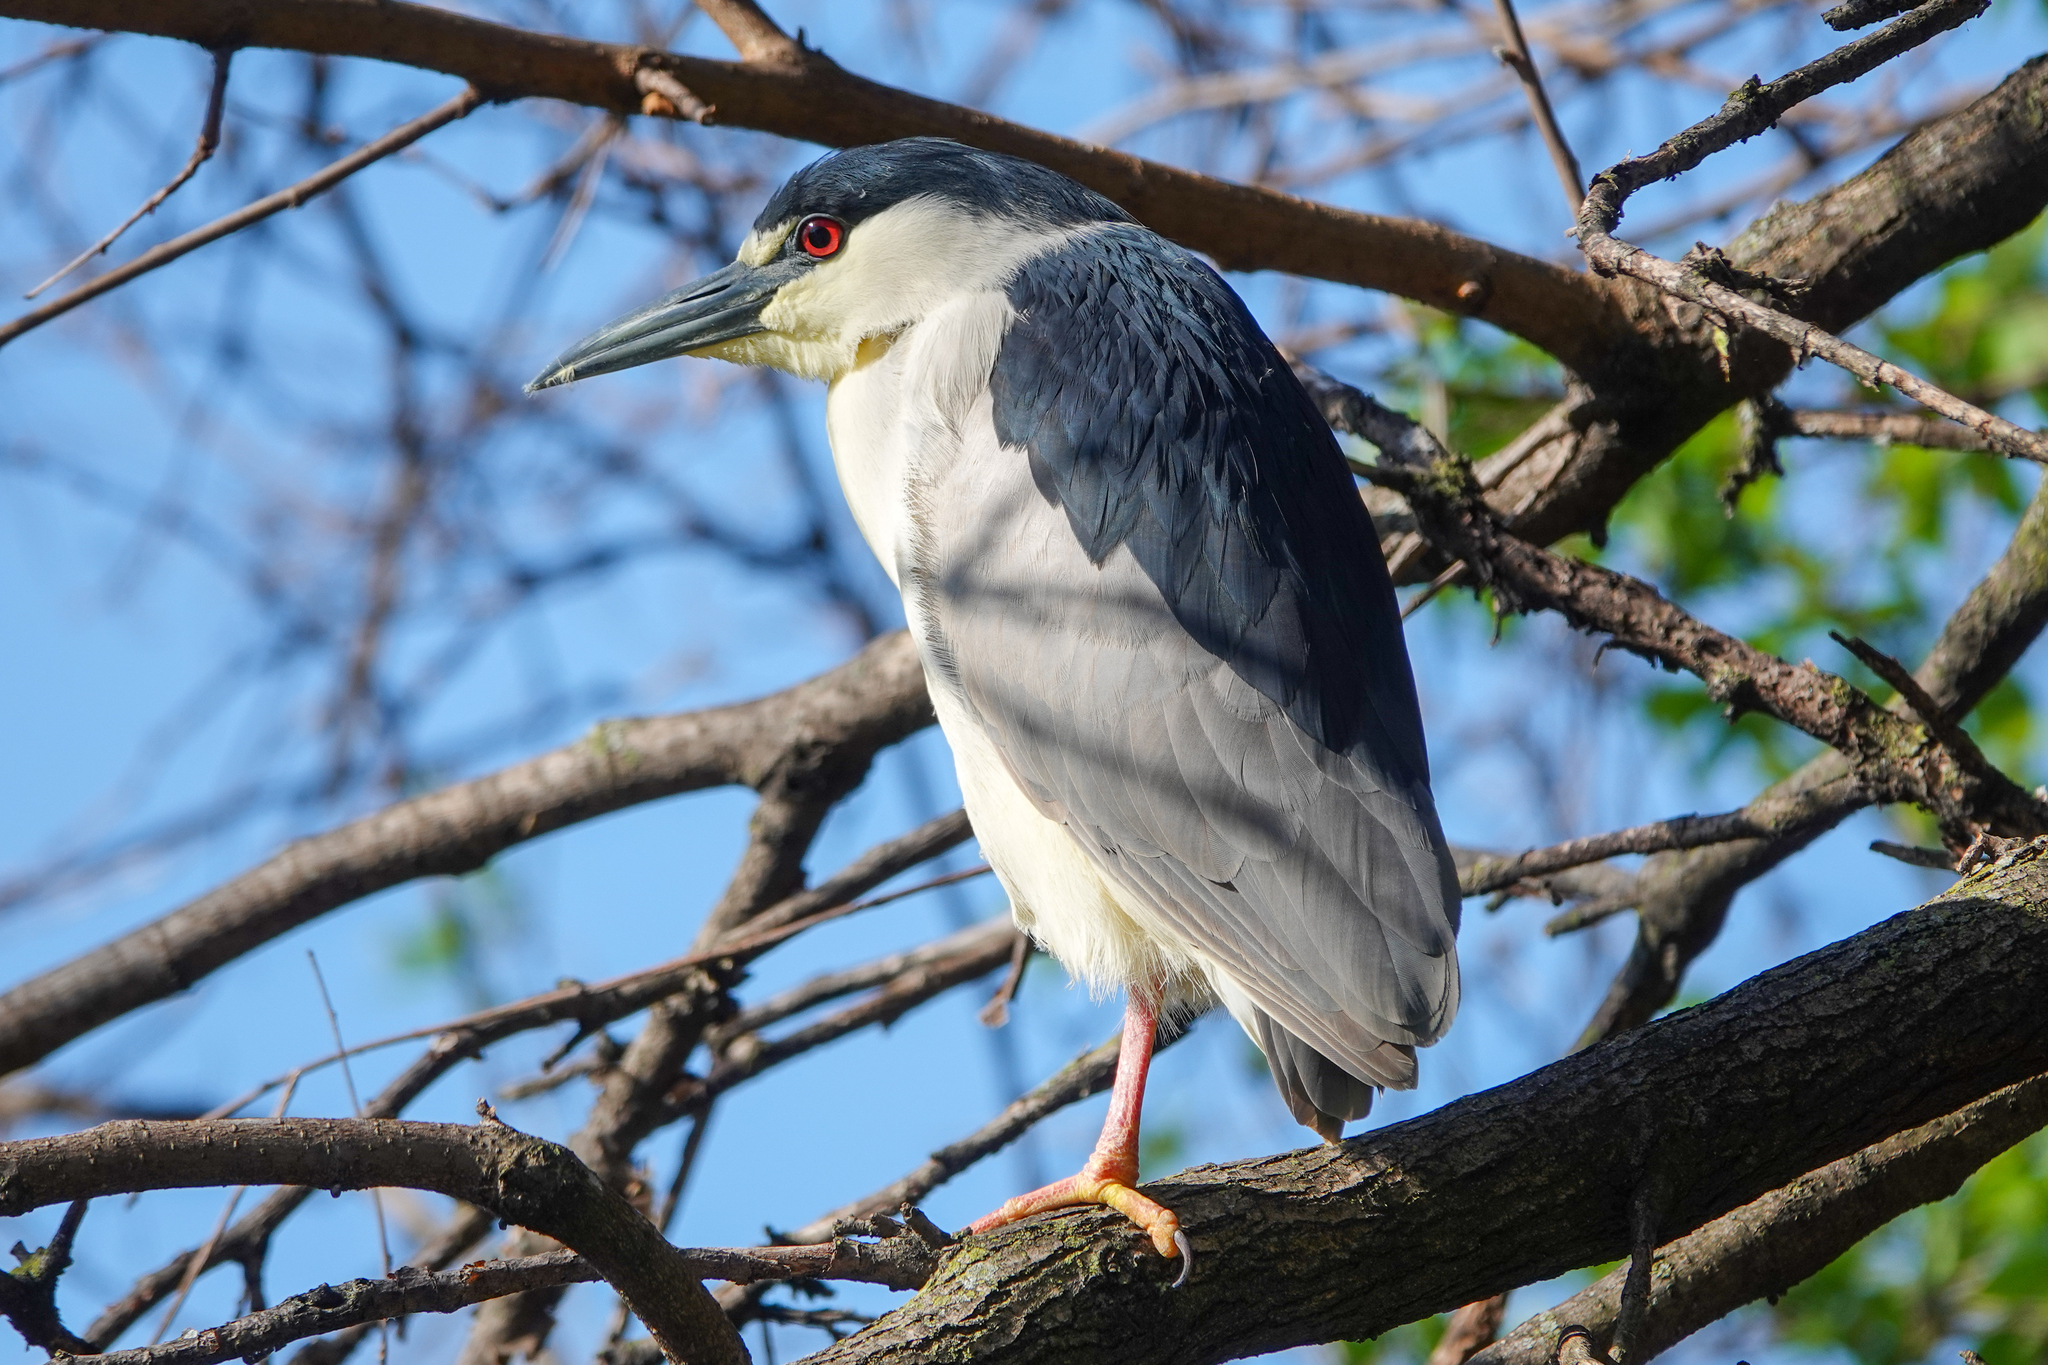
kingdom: Animalia
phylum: Chordata
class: Aves
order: Pelecaniformes
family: Ardeidae
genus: Nycticorax
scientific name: Nycticorax nycticorax
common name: Black-crowned night heron
